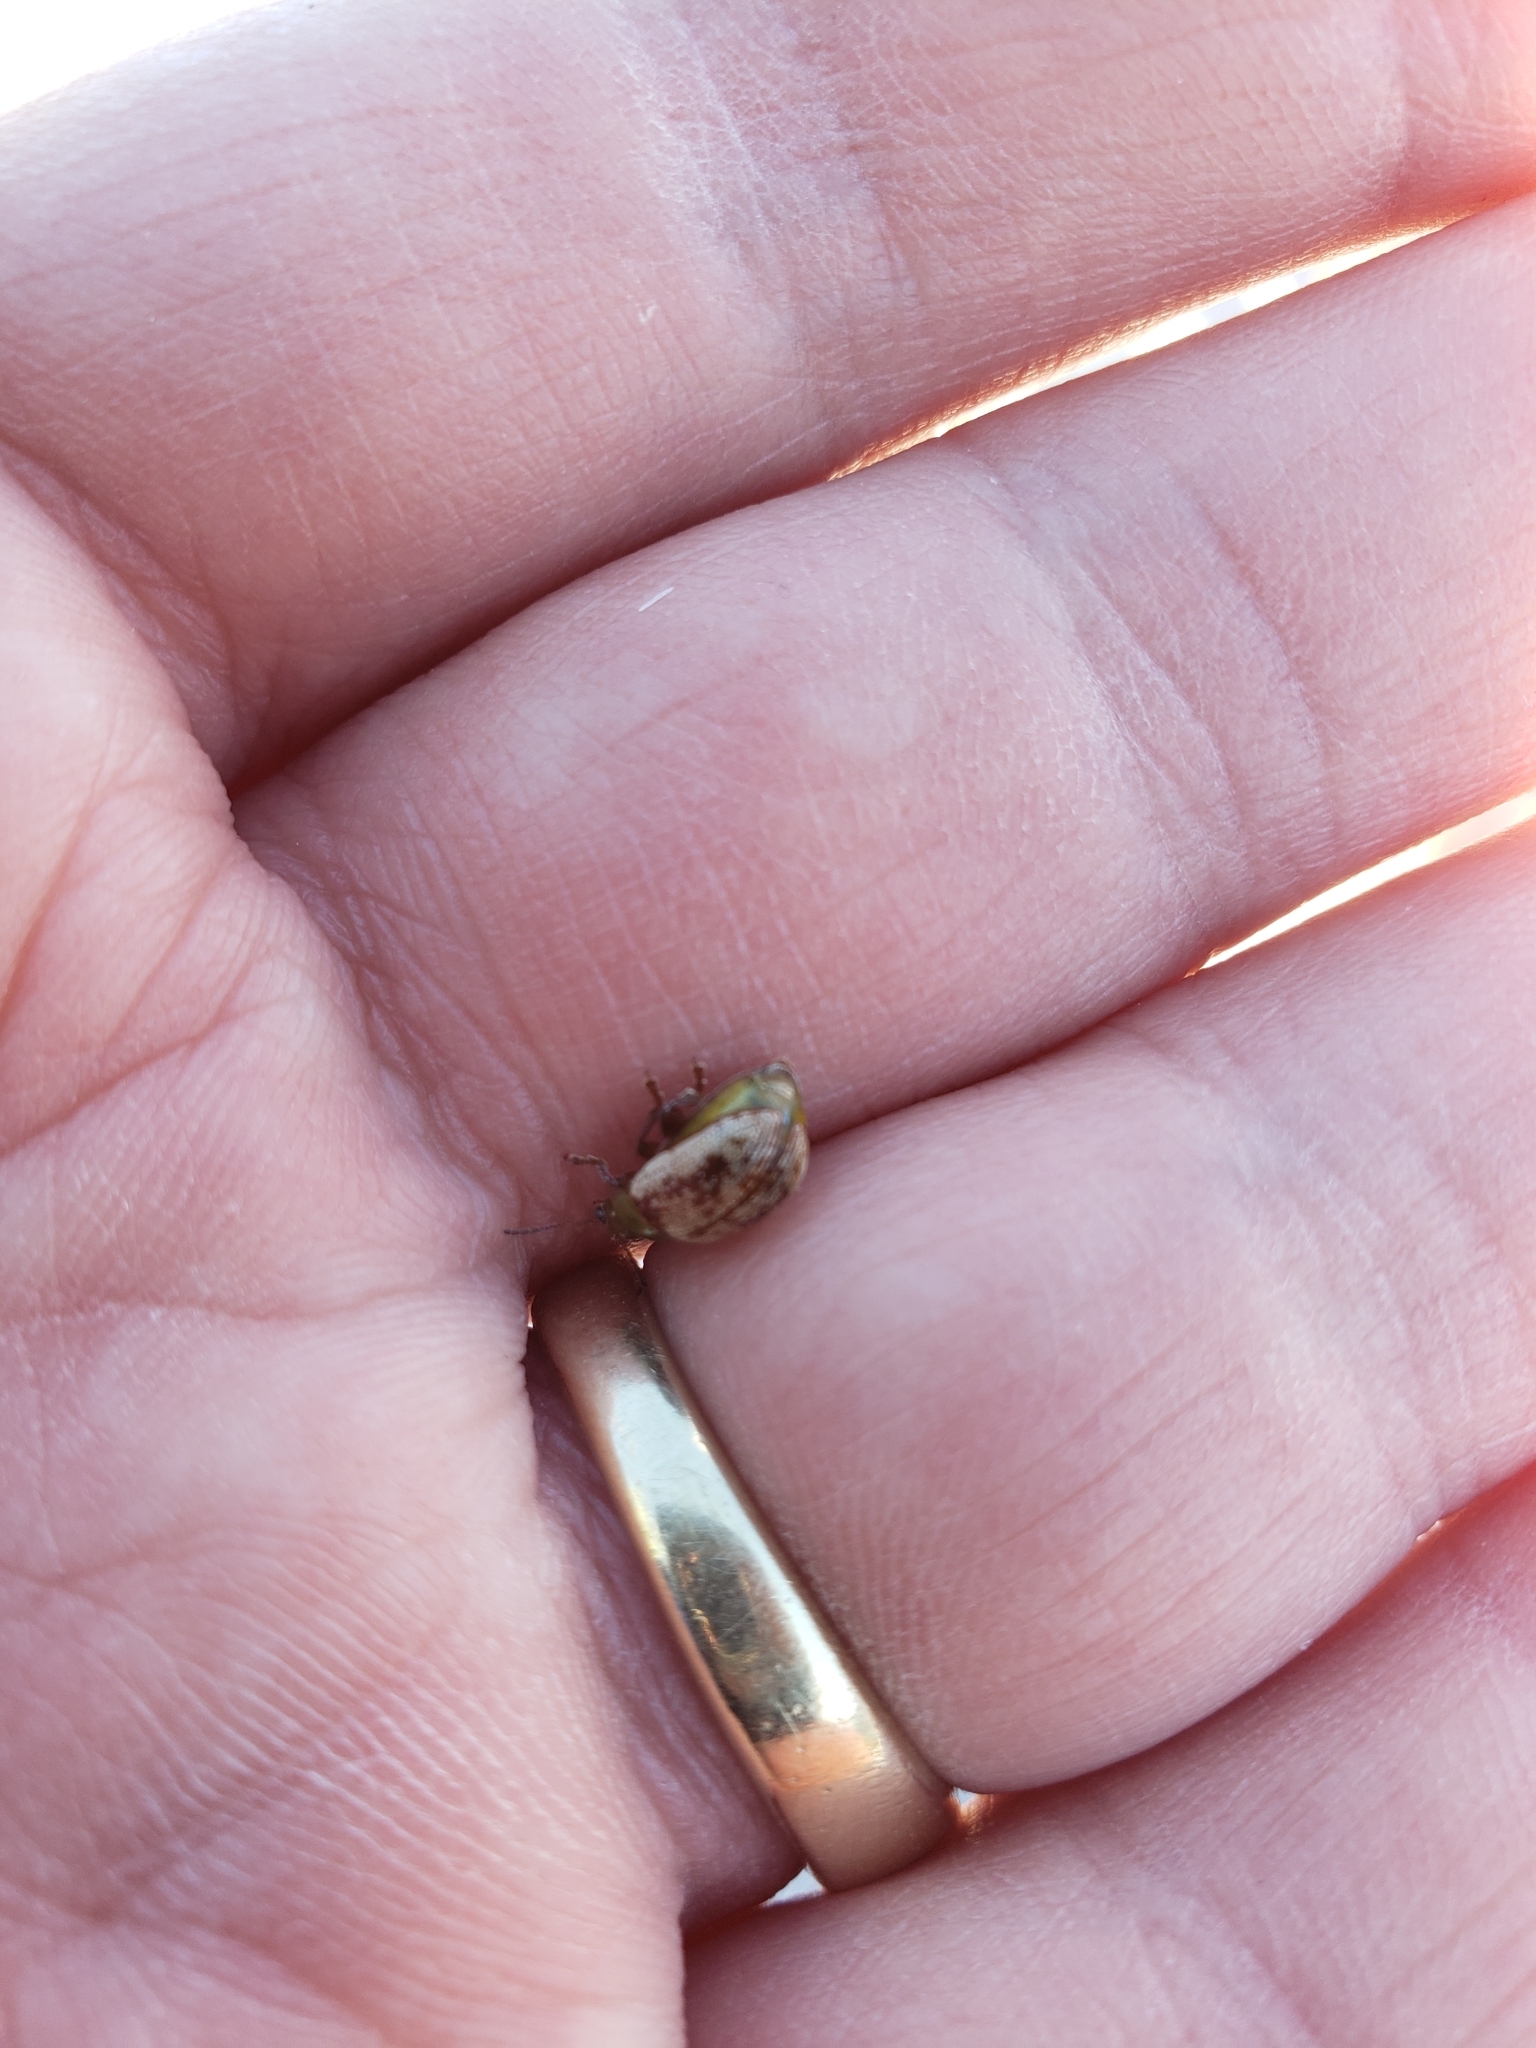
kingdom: Animalia
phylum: Arthropoda
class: Insecta
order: Coleoptera
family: Chrysomelidae
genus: Blepharida
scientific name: Blepharida rhois
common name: Sumac flea beetle
